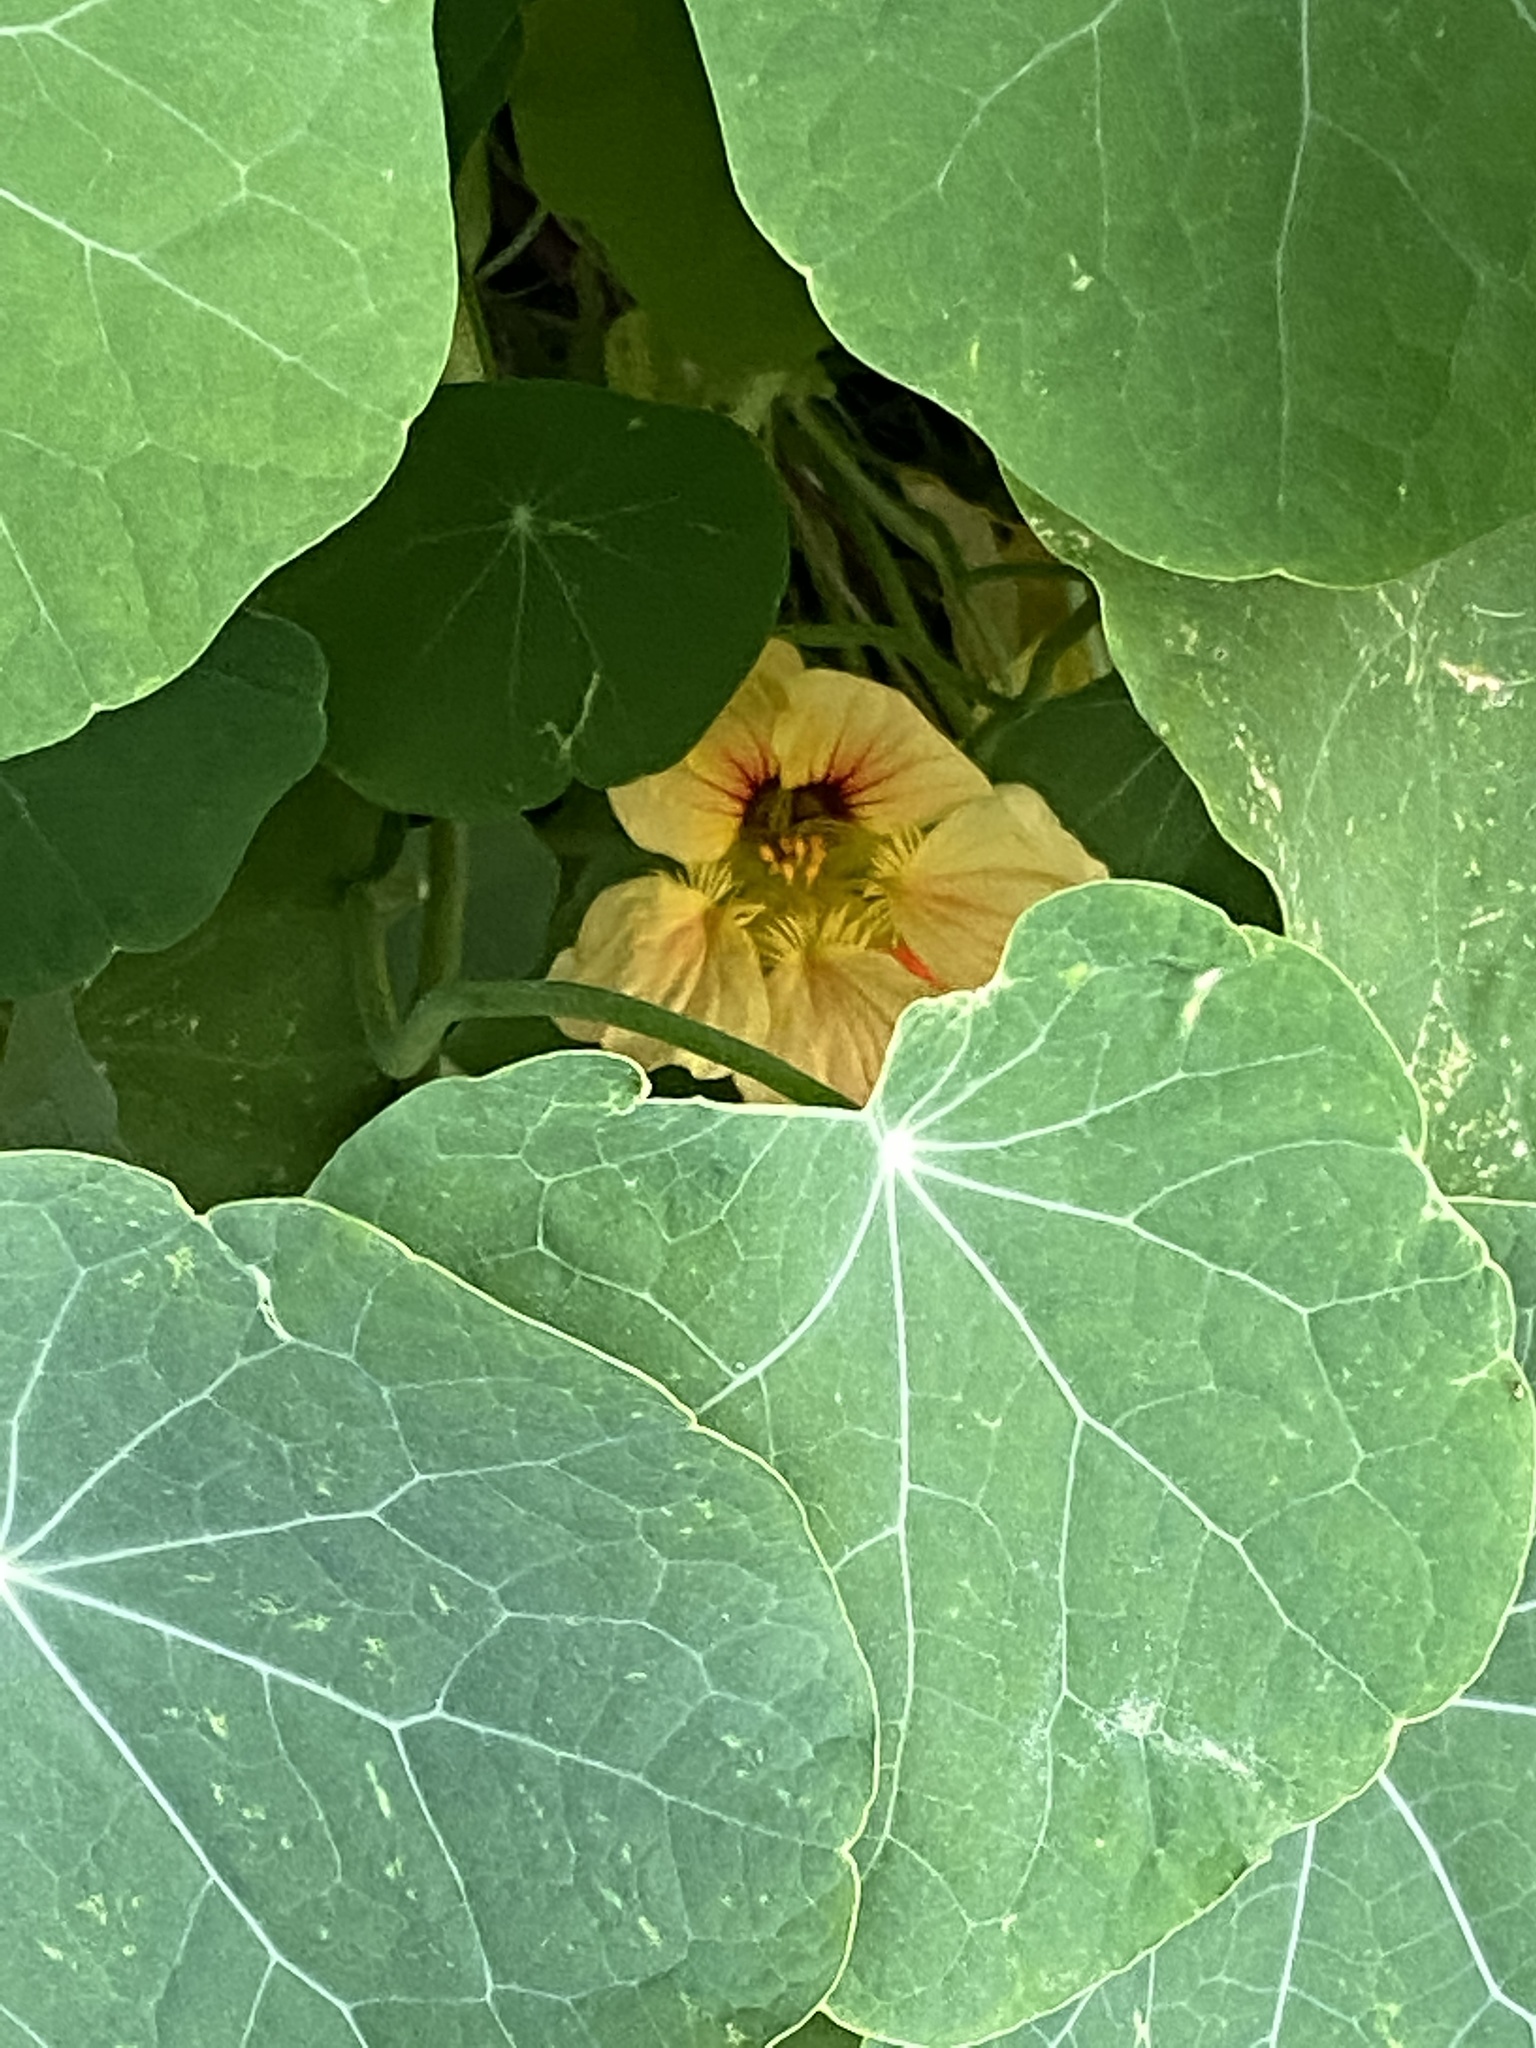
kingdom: Plantae
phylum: Tracheophyta
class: Magnoliopsida
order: Brassicales
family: Tropaeolaceae
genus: Tropaeolum
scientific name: Tropaeolum majus
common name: Nasturtium
